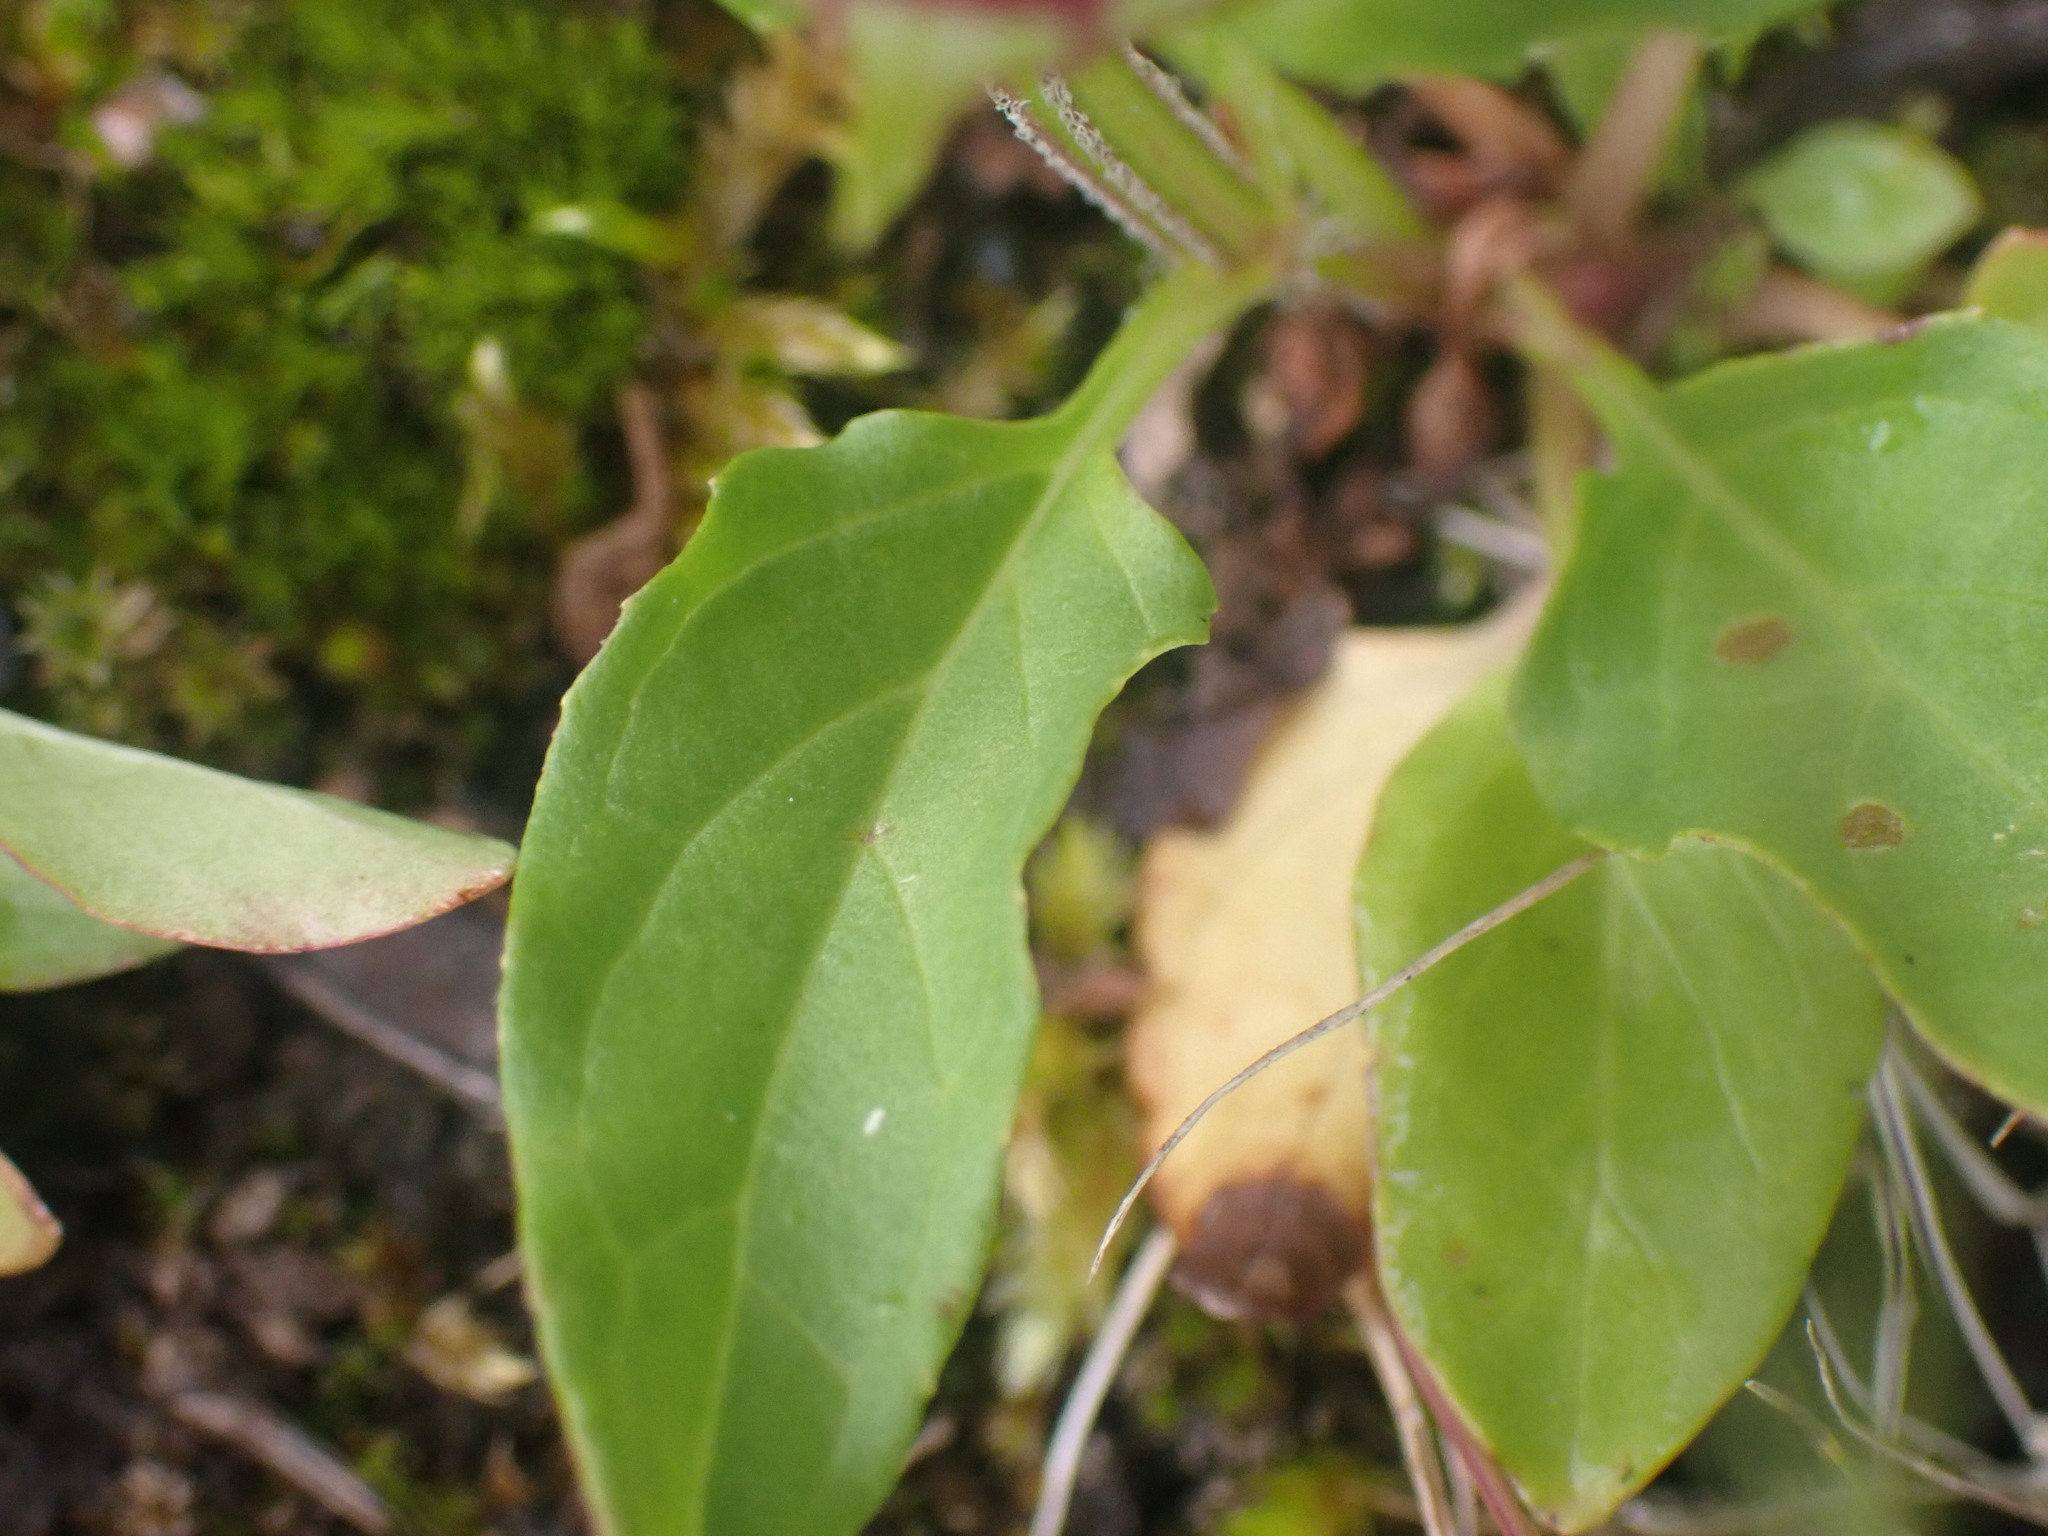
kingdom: Plantae
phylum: Tracheophyta
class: Magnoliopsida
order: Lamiales
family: Lamiaceae
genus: Prunella
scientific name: Prunella vulgaris
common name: Heal-all
